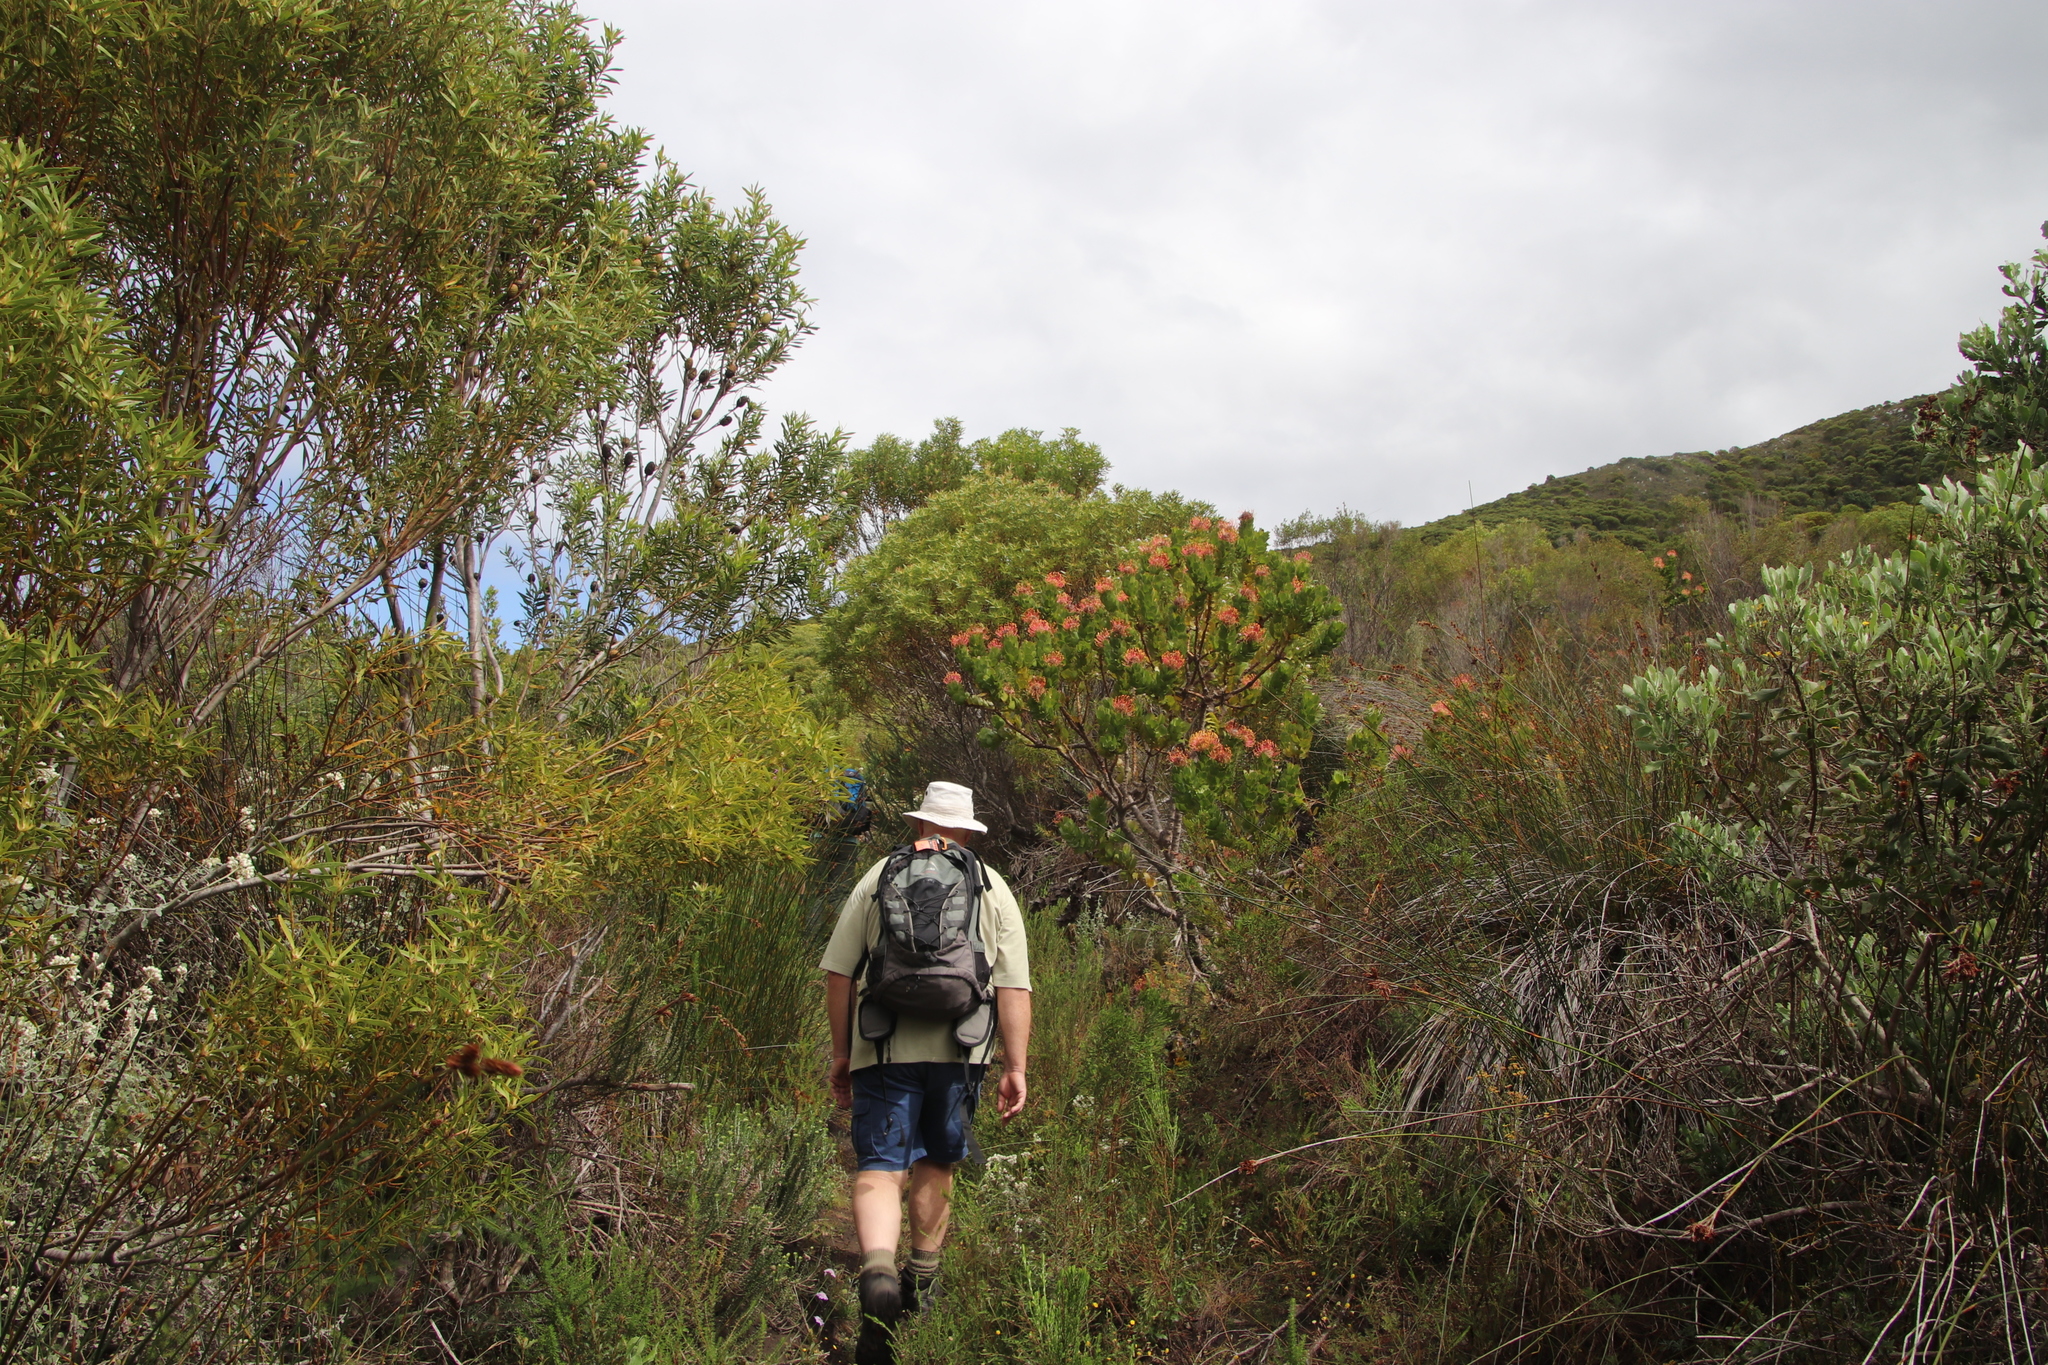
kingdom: Plantae
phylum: Tracheophyta
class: Magnoliopsida
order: Proteales
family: Proteaceae
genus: Leucospermum
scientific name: Leucospermum patersonii
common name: False tree pincushion
